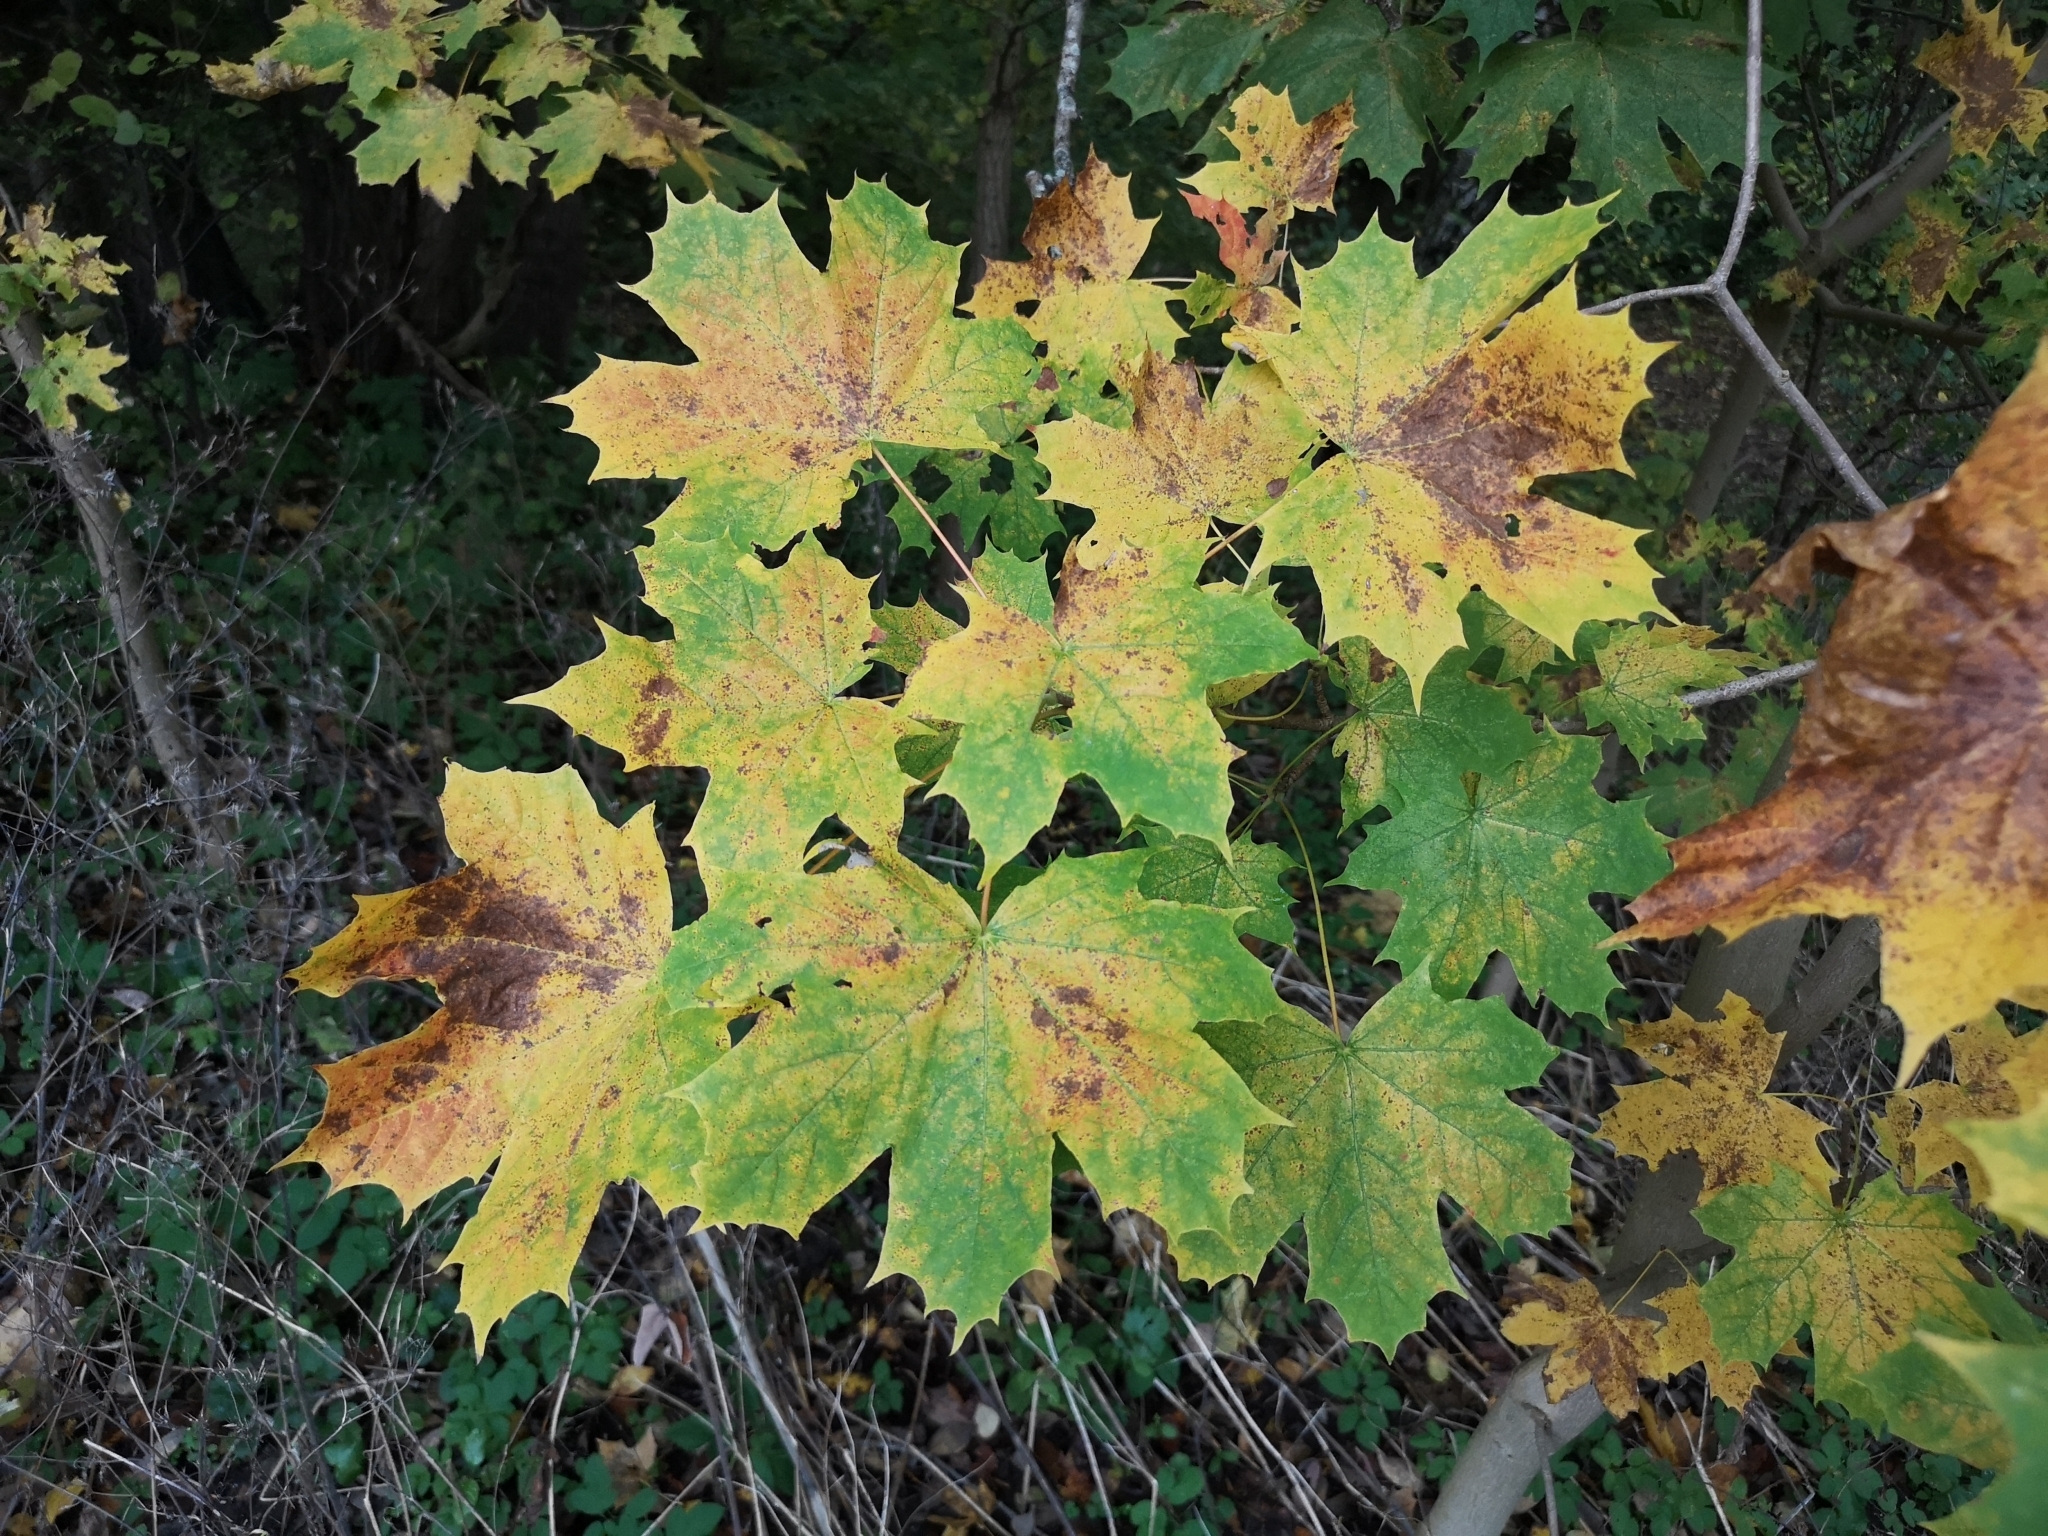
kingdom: Plantae
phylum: Tracheophyta
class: Magnoliopsida
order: Sapindales
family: Sapindaceae
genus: Acer
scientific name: Acer platanoides
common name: Norway maple
